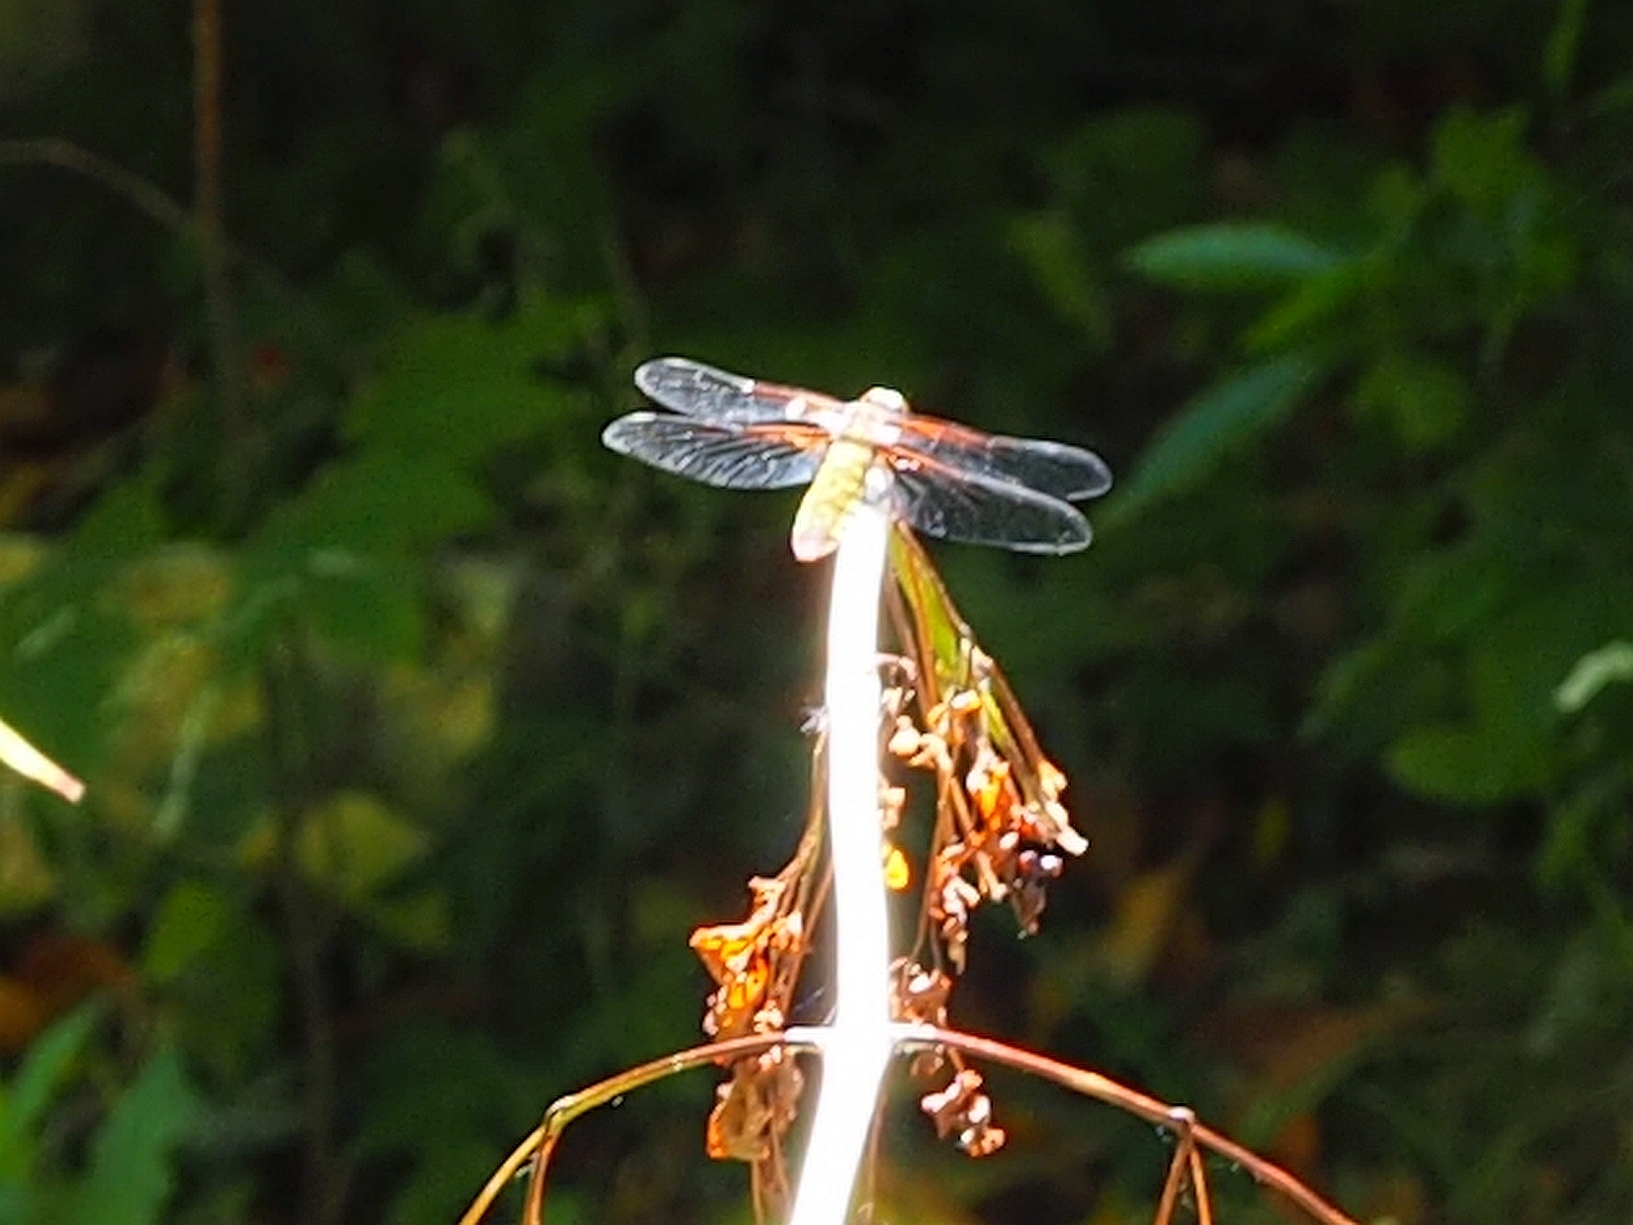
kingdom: Animalia
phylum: Arthropoda
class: Insecta
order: Odonata
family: Libellulidae
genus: Libellula
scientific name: Libellula depressa
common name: Broad-bodied chaser
